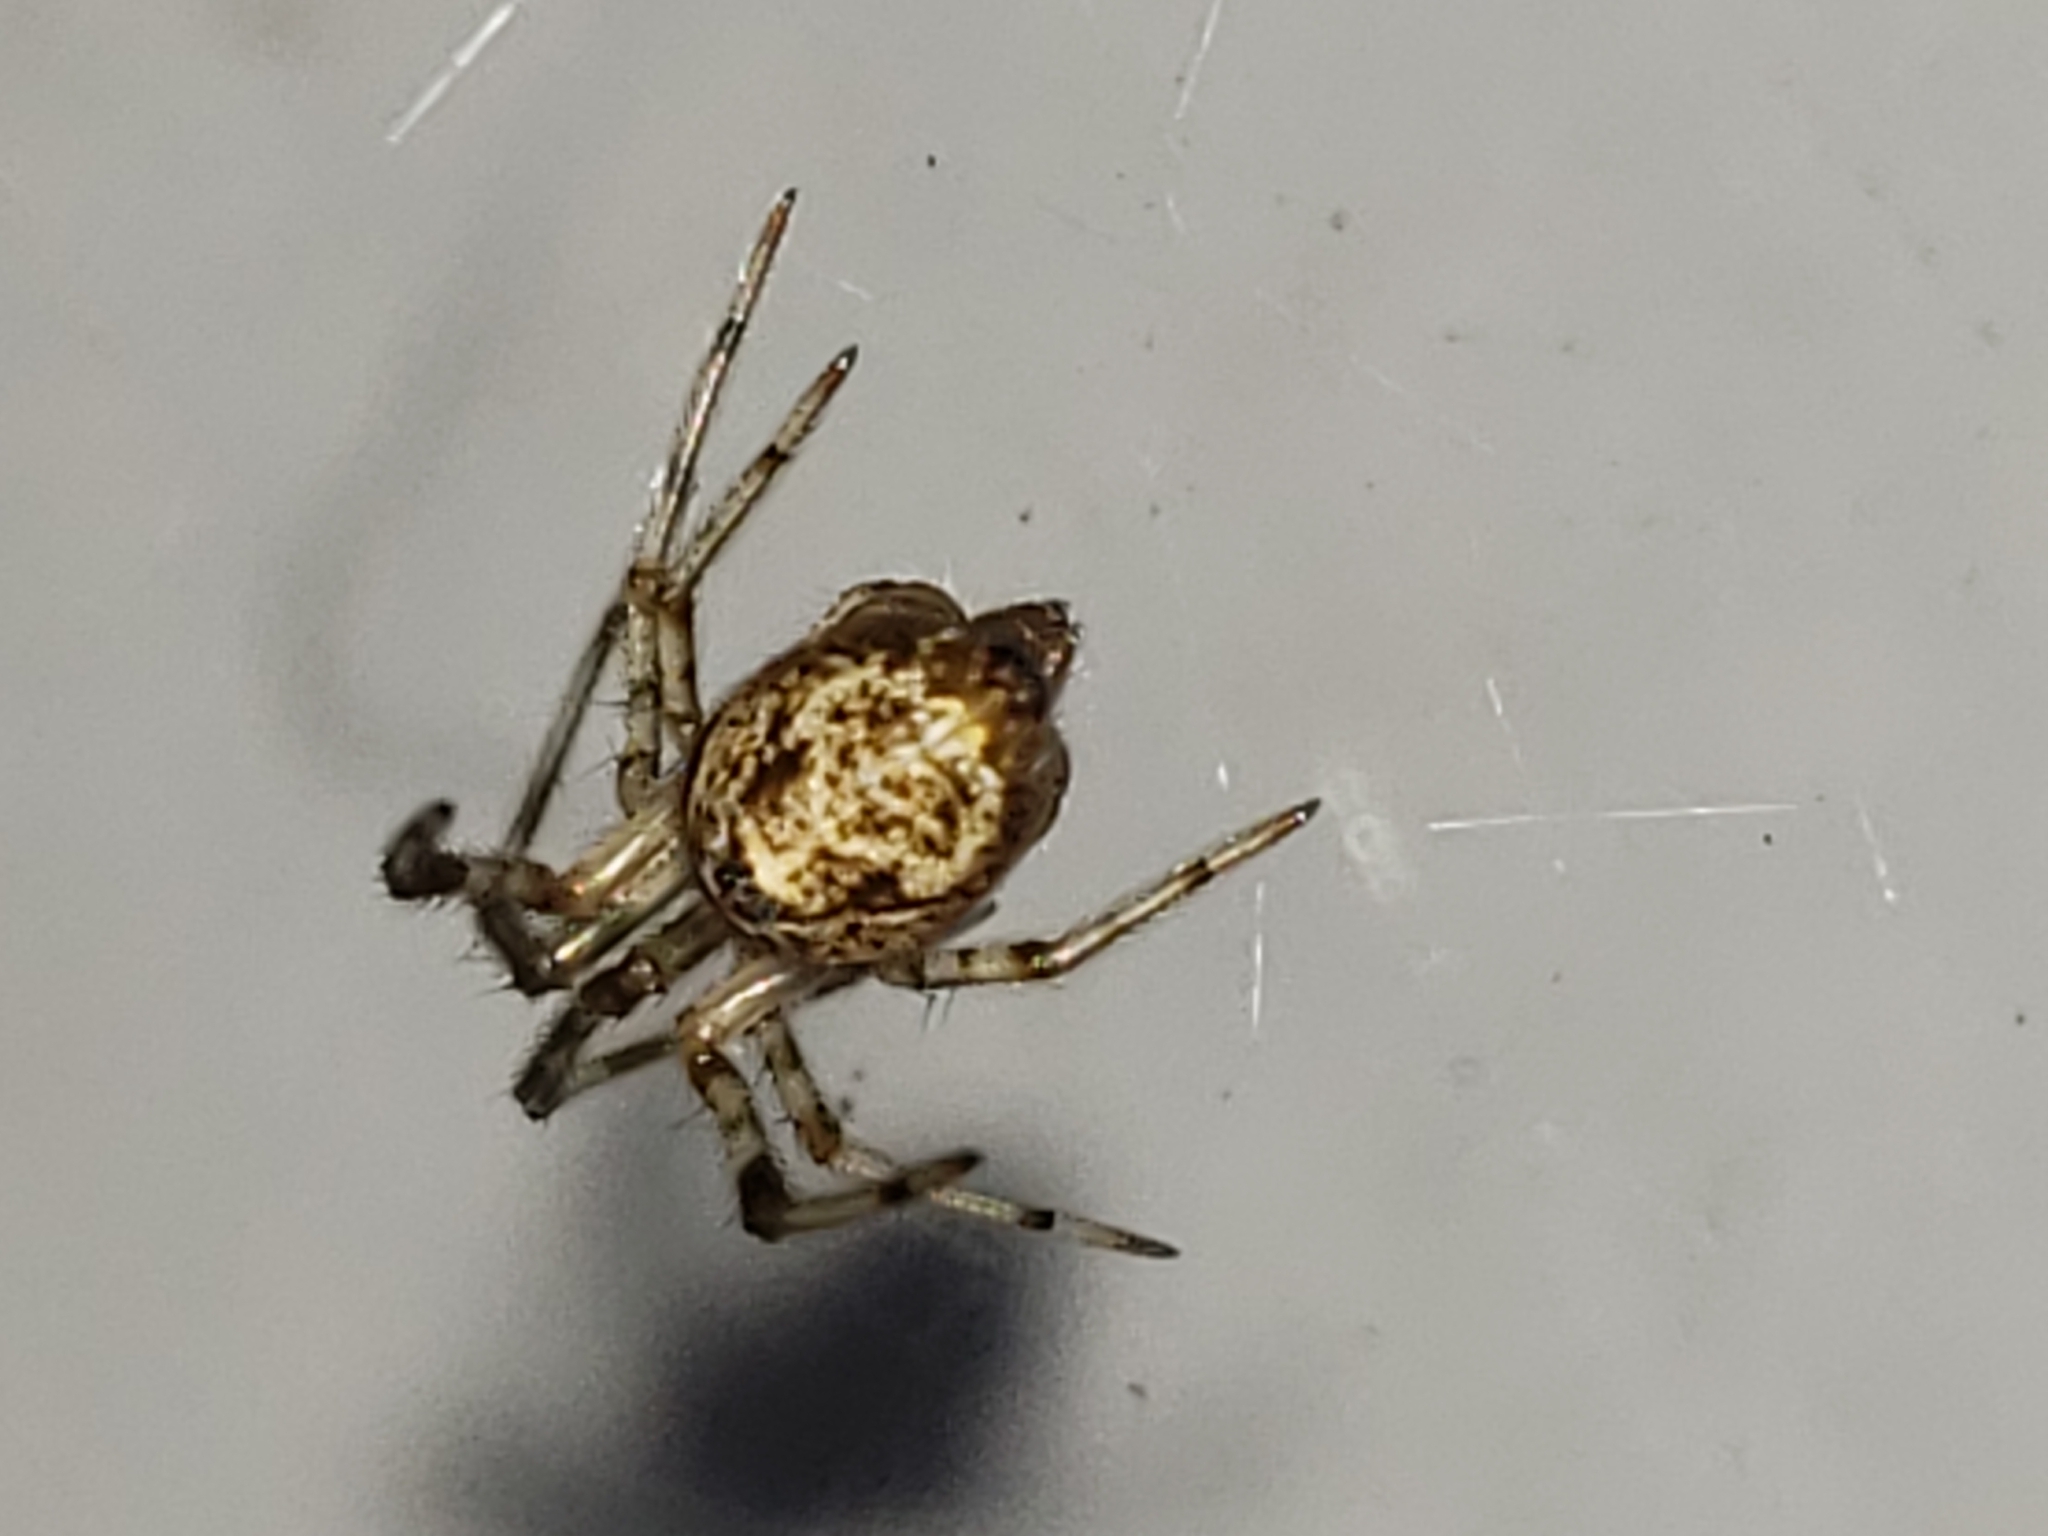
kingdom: Animalia
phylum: Arthropoda
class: Arachnida
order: Araneae
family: Theridiidae
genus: Parasteatoda
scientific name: Parasteatoda tepidariorum
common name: Common house spider
